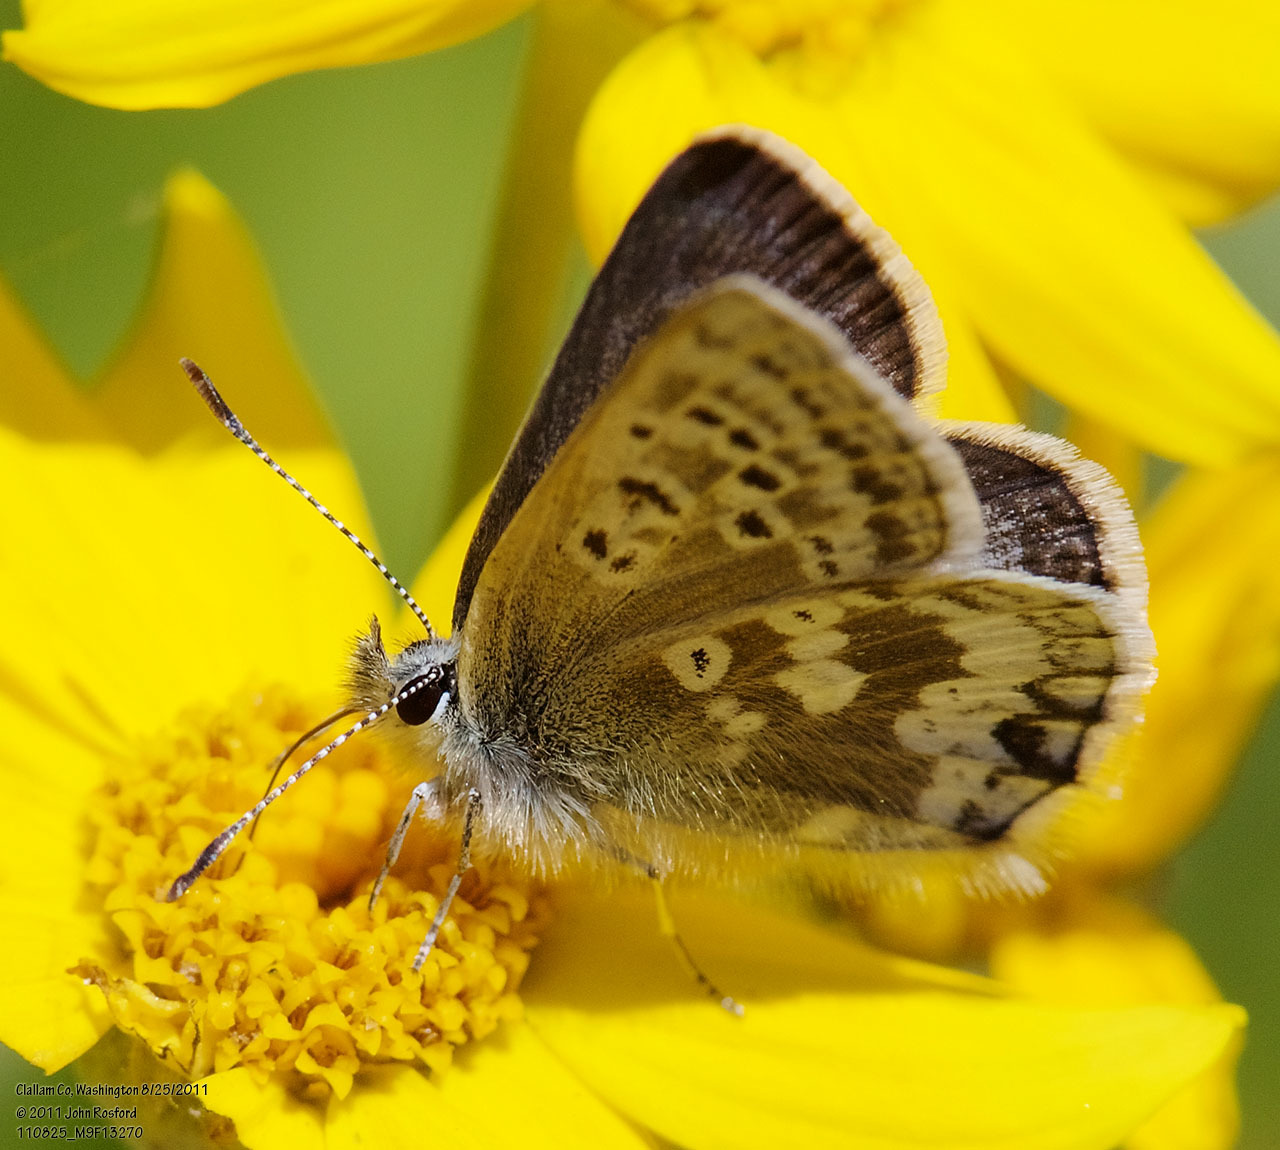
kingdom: Animalia
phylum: Arthropoda
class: Insecta
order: Lepidoptera
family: Lycaenidae
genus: Agriades
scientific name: Agriades glandon
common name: Glandon blue
